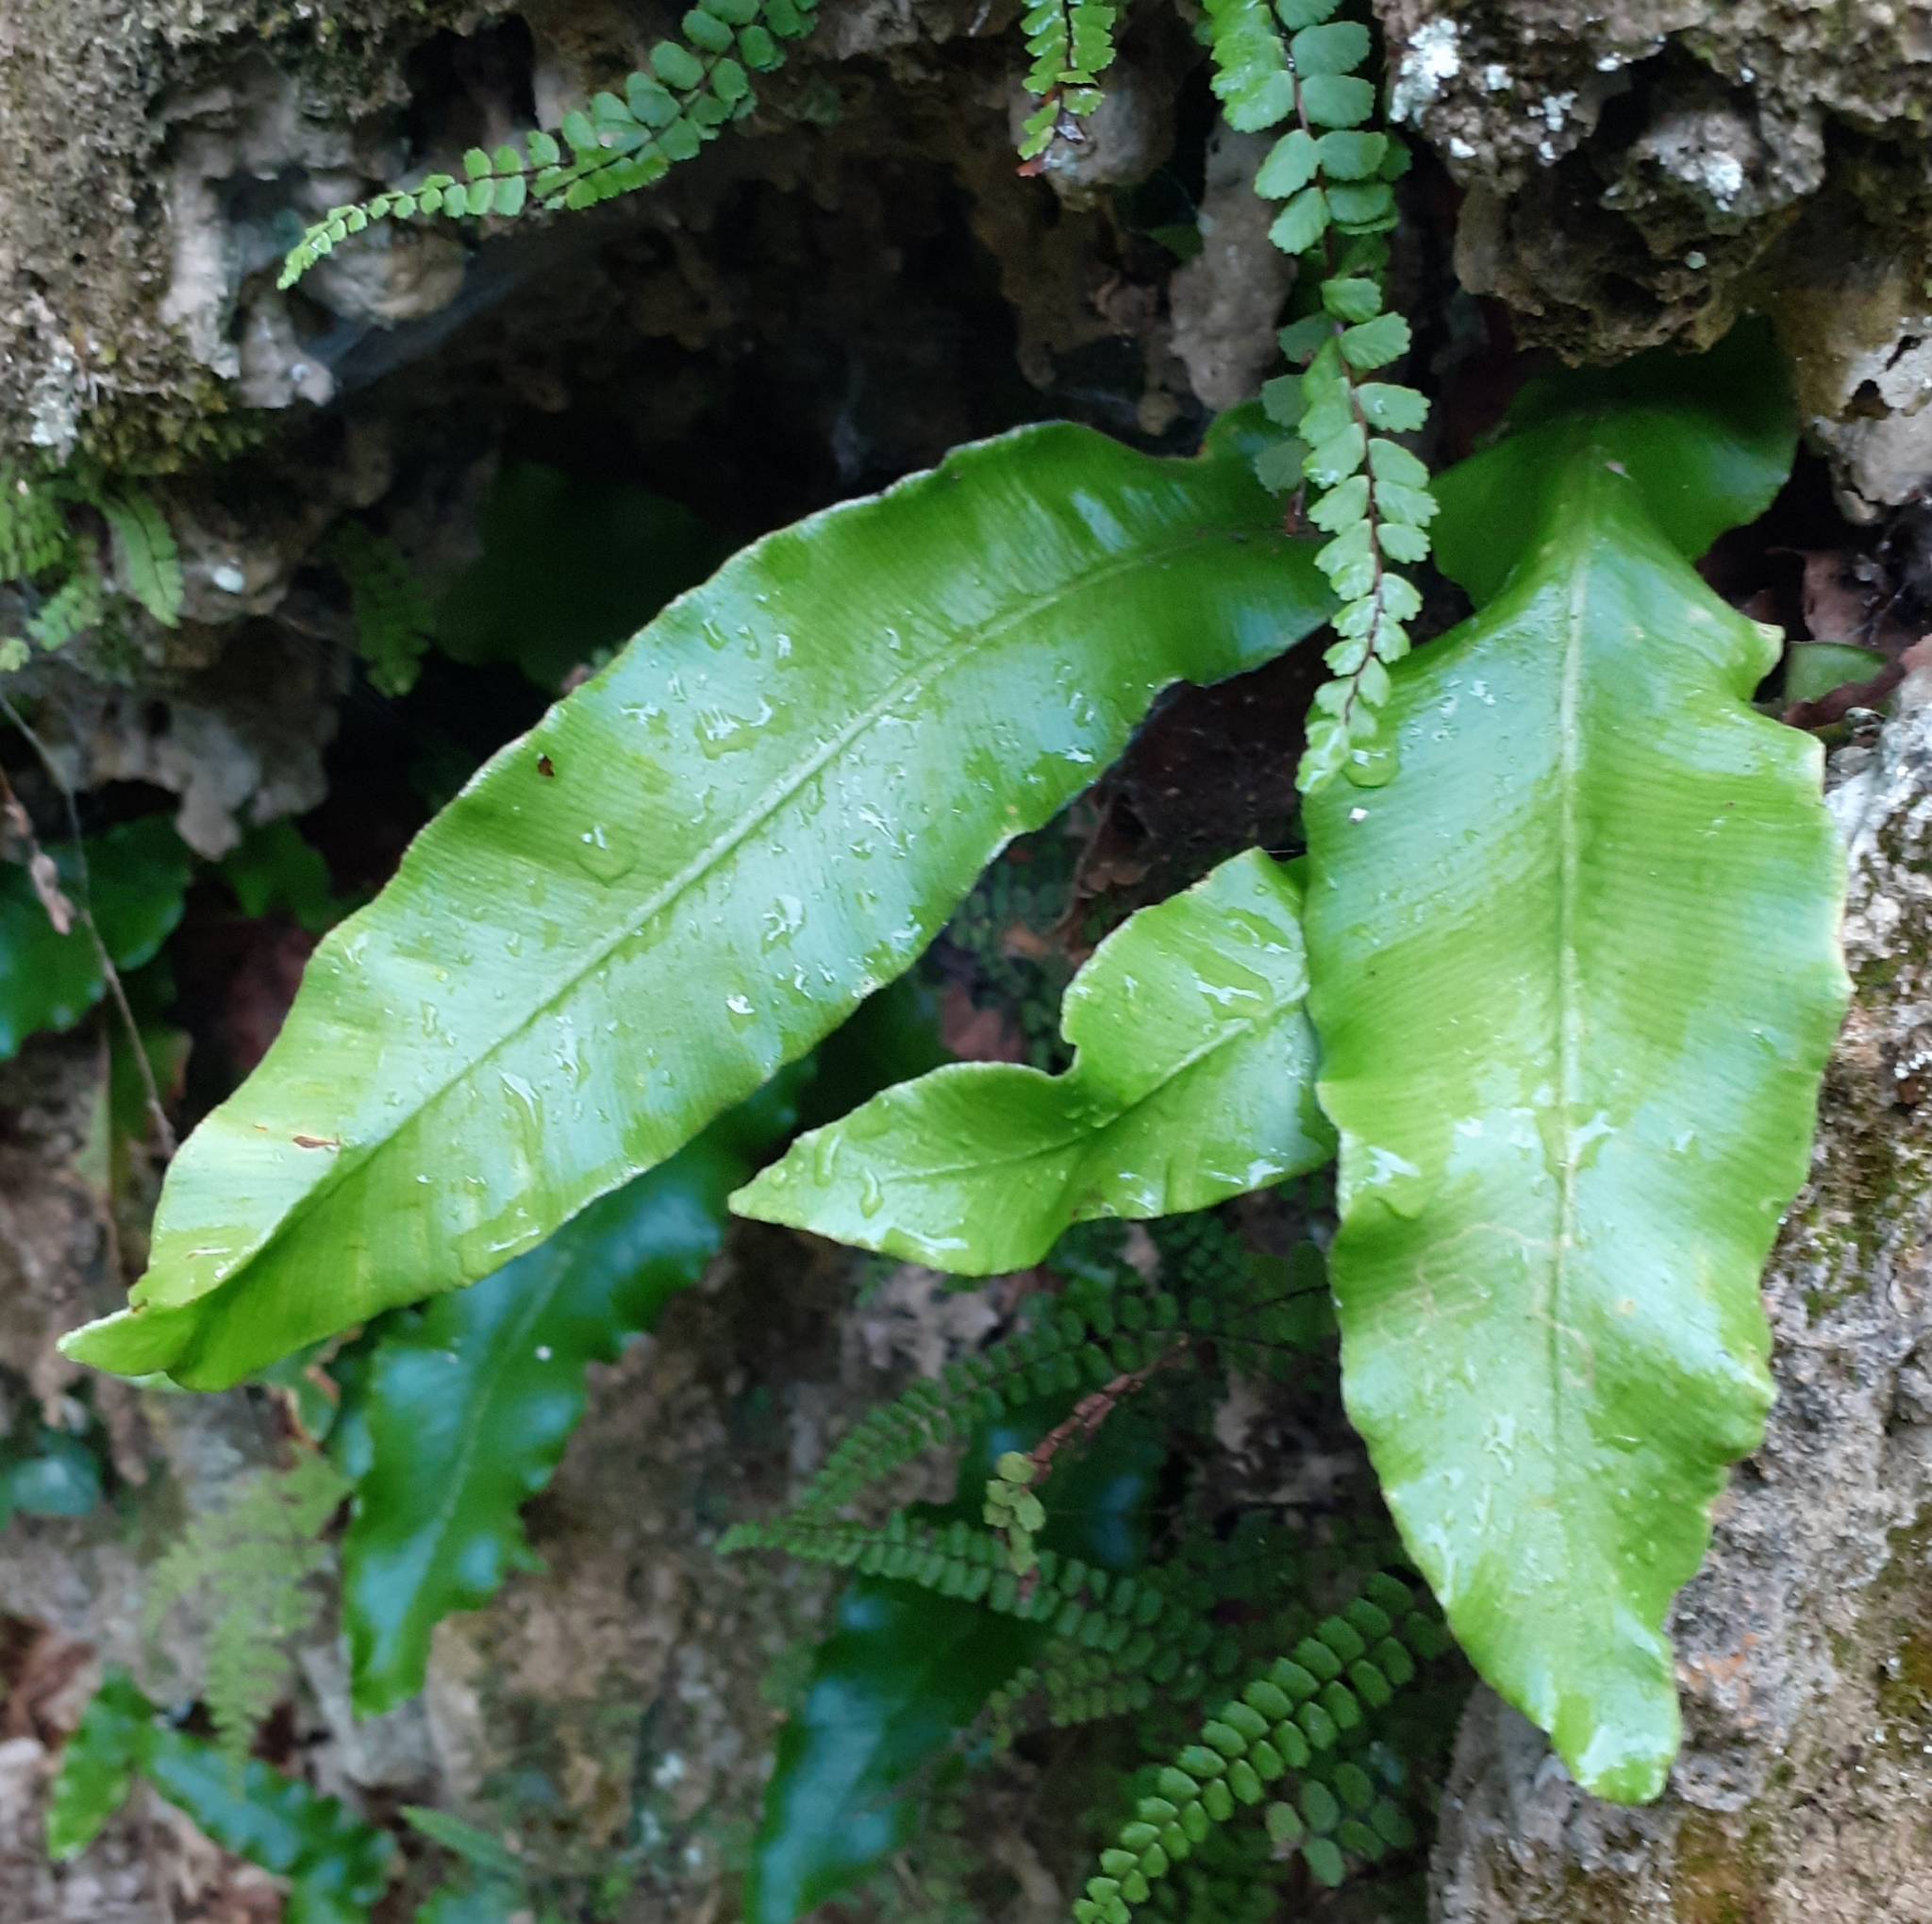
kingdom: Plantae
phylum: Tracheophyta
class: Polypodiopsida
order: Polypodiales
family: Aspleniaceae
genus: Asplenium
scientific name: Asplenium scolopendrium
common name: Hart's-tongue fern
